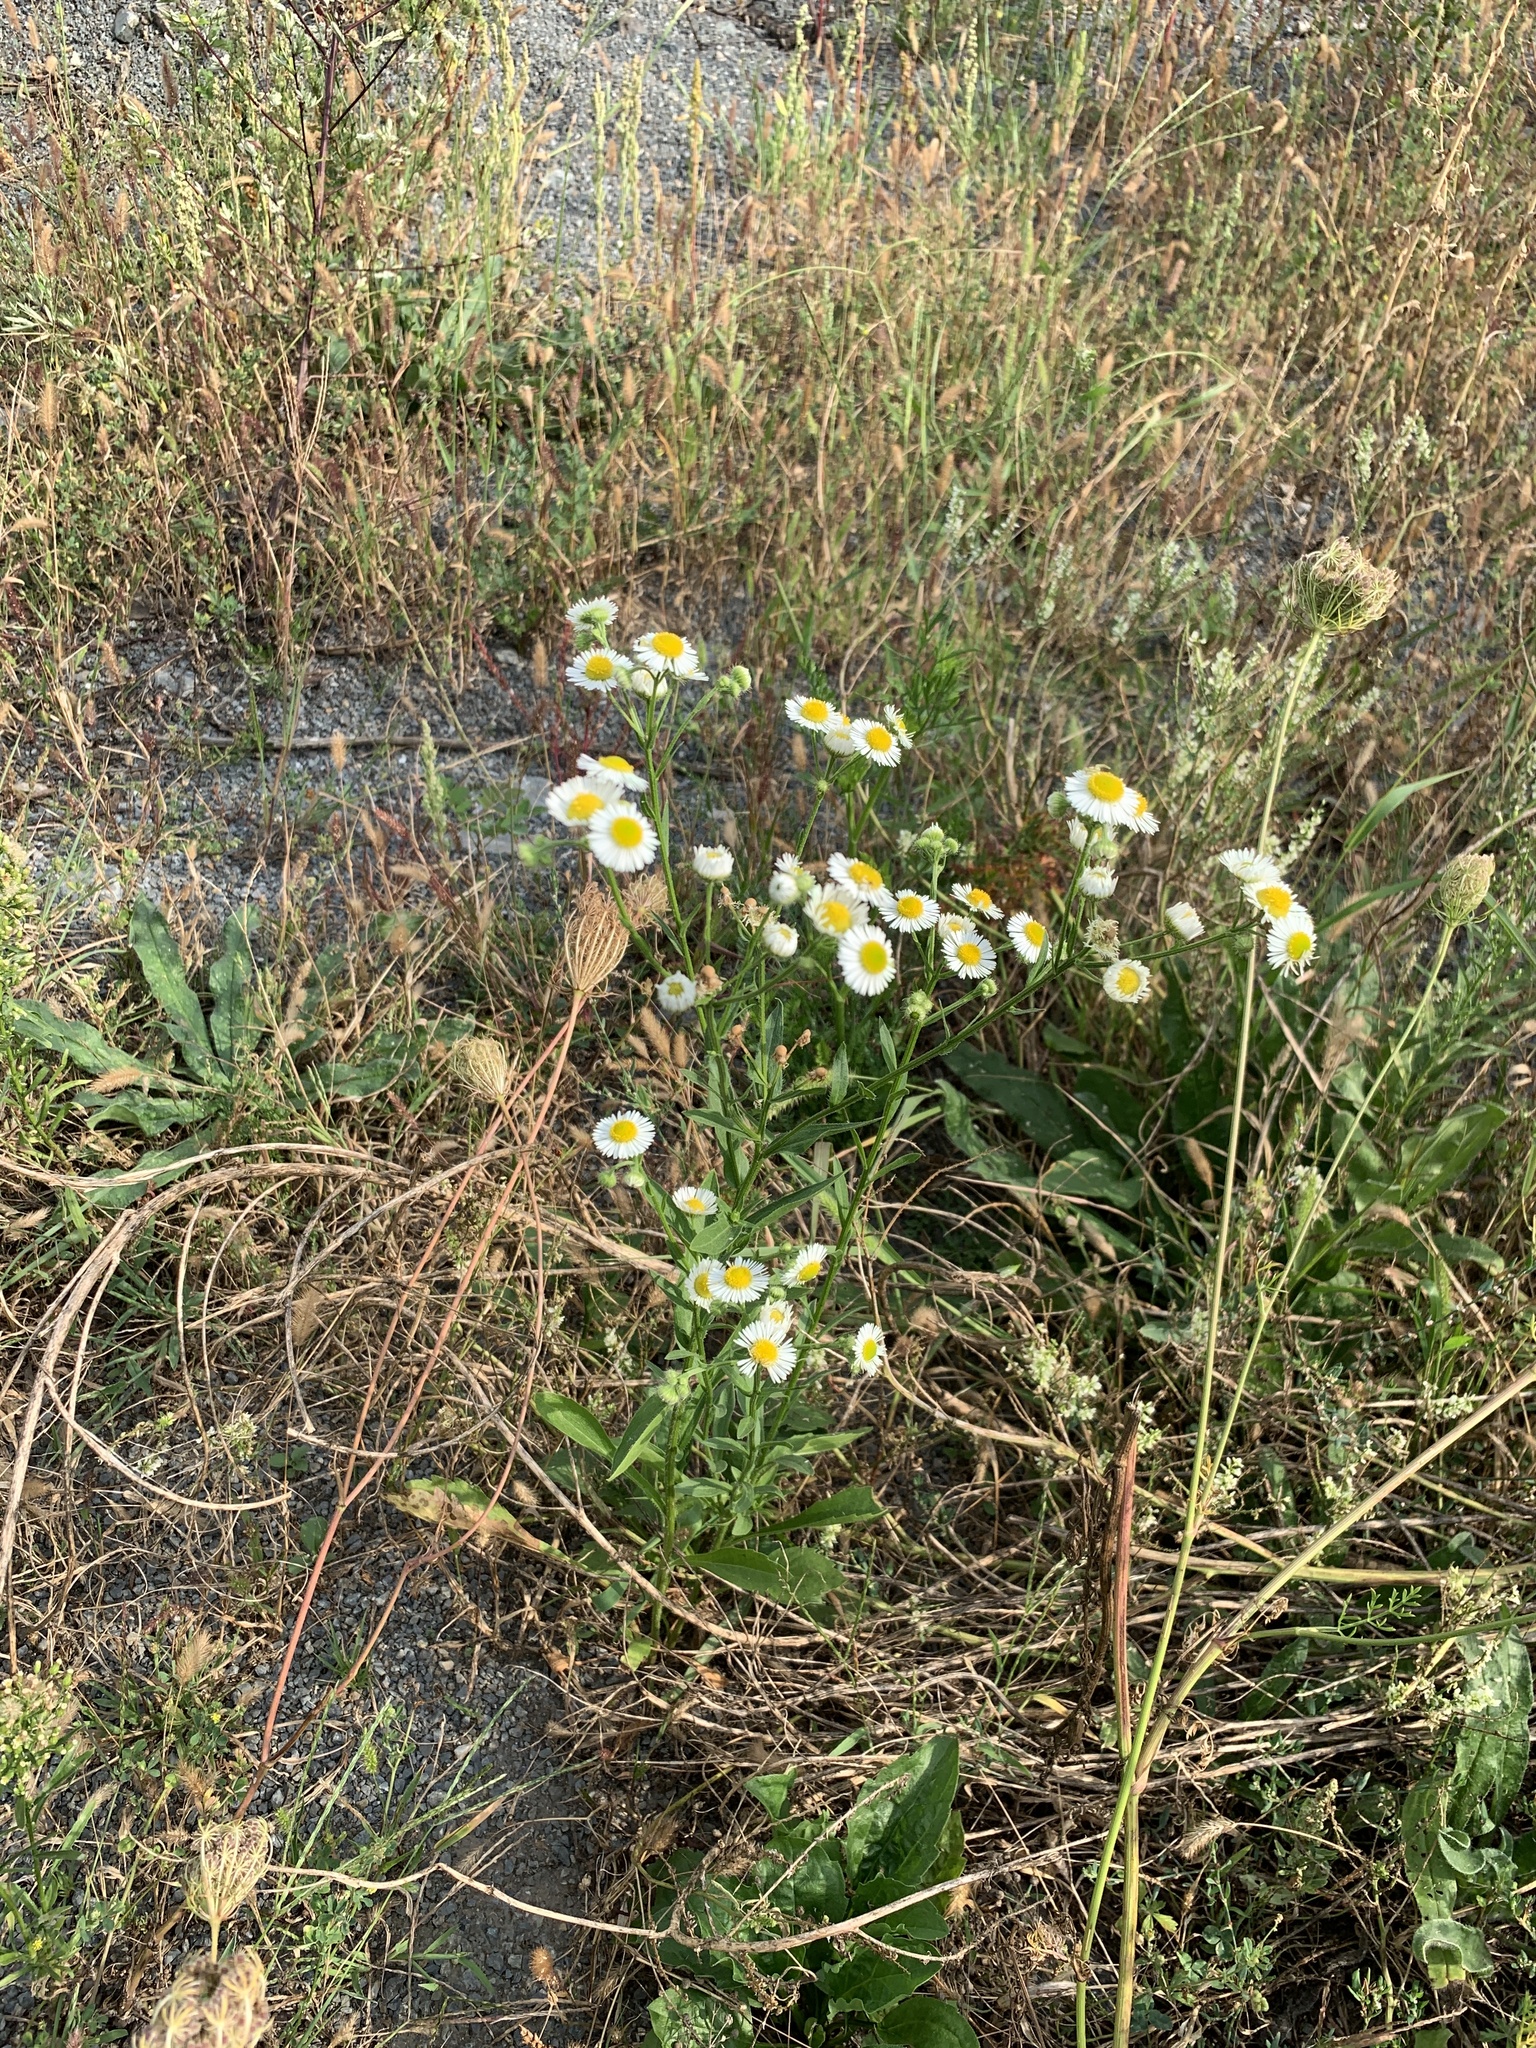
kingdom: Plantae
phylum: Tracheophyta
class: Magnoliopsida
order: Asterales
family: Asteraceae
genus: Erigeron
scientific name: Erigeron annuus
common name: Tall fleabane
